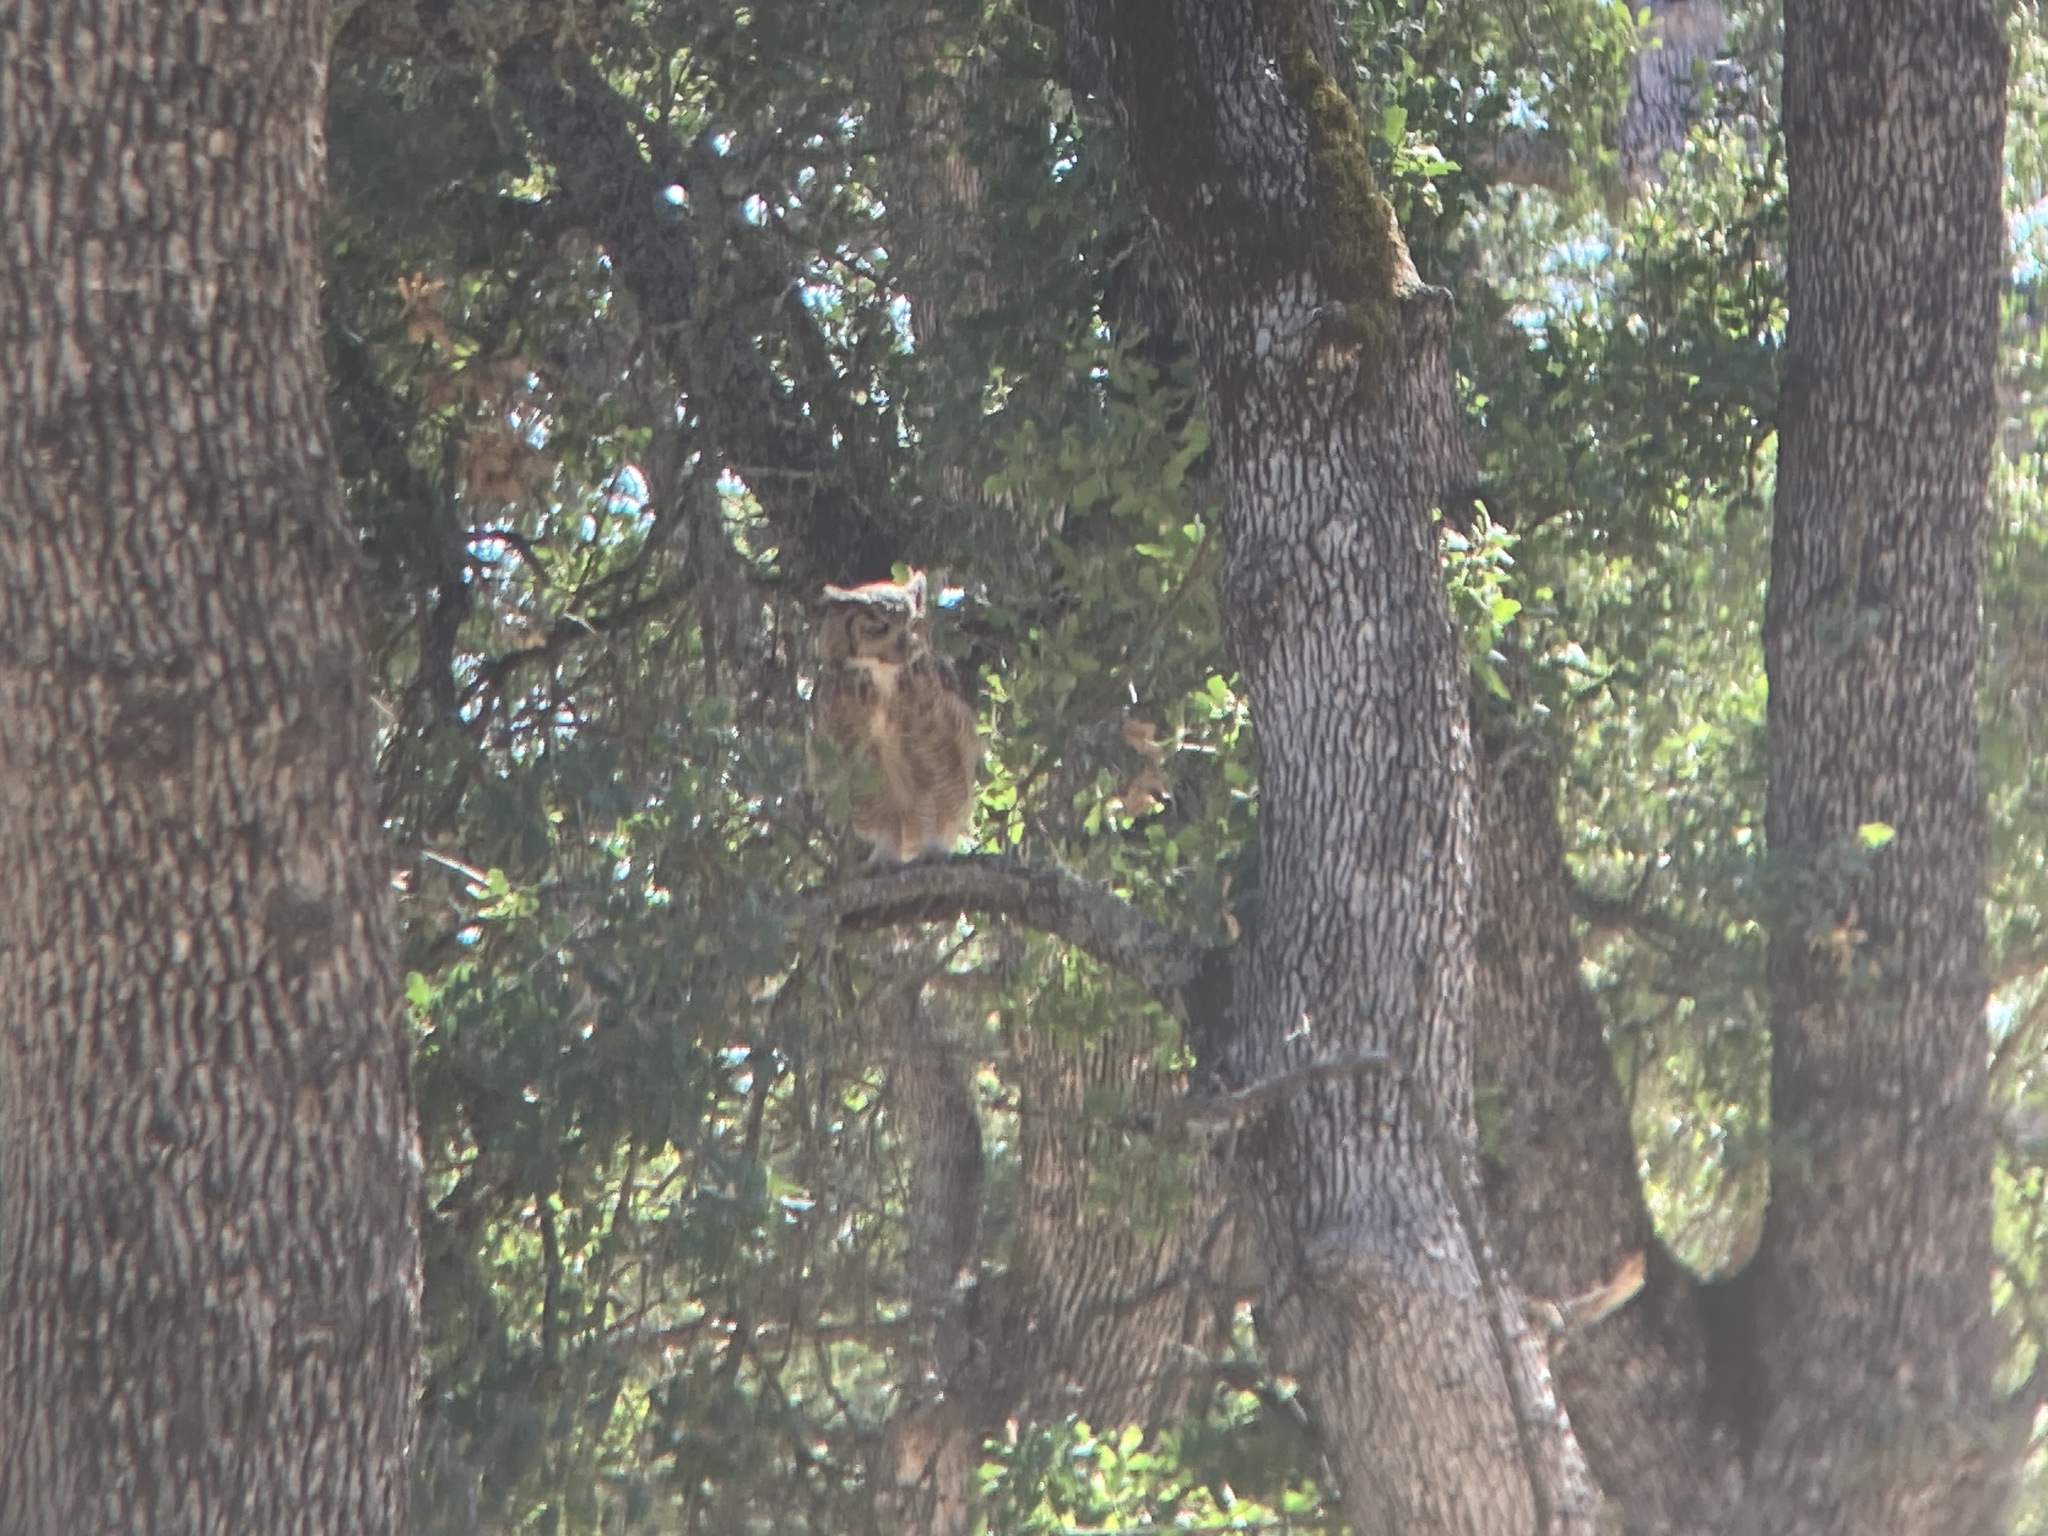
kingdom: Animalia
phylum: Chordata
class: Aves
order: Strigiformes
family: Strigidae
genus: Bubo
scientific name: Bubo virginianus
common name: Great horned owl
